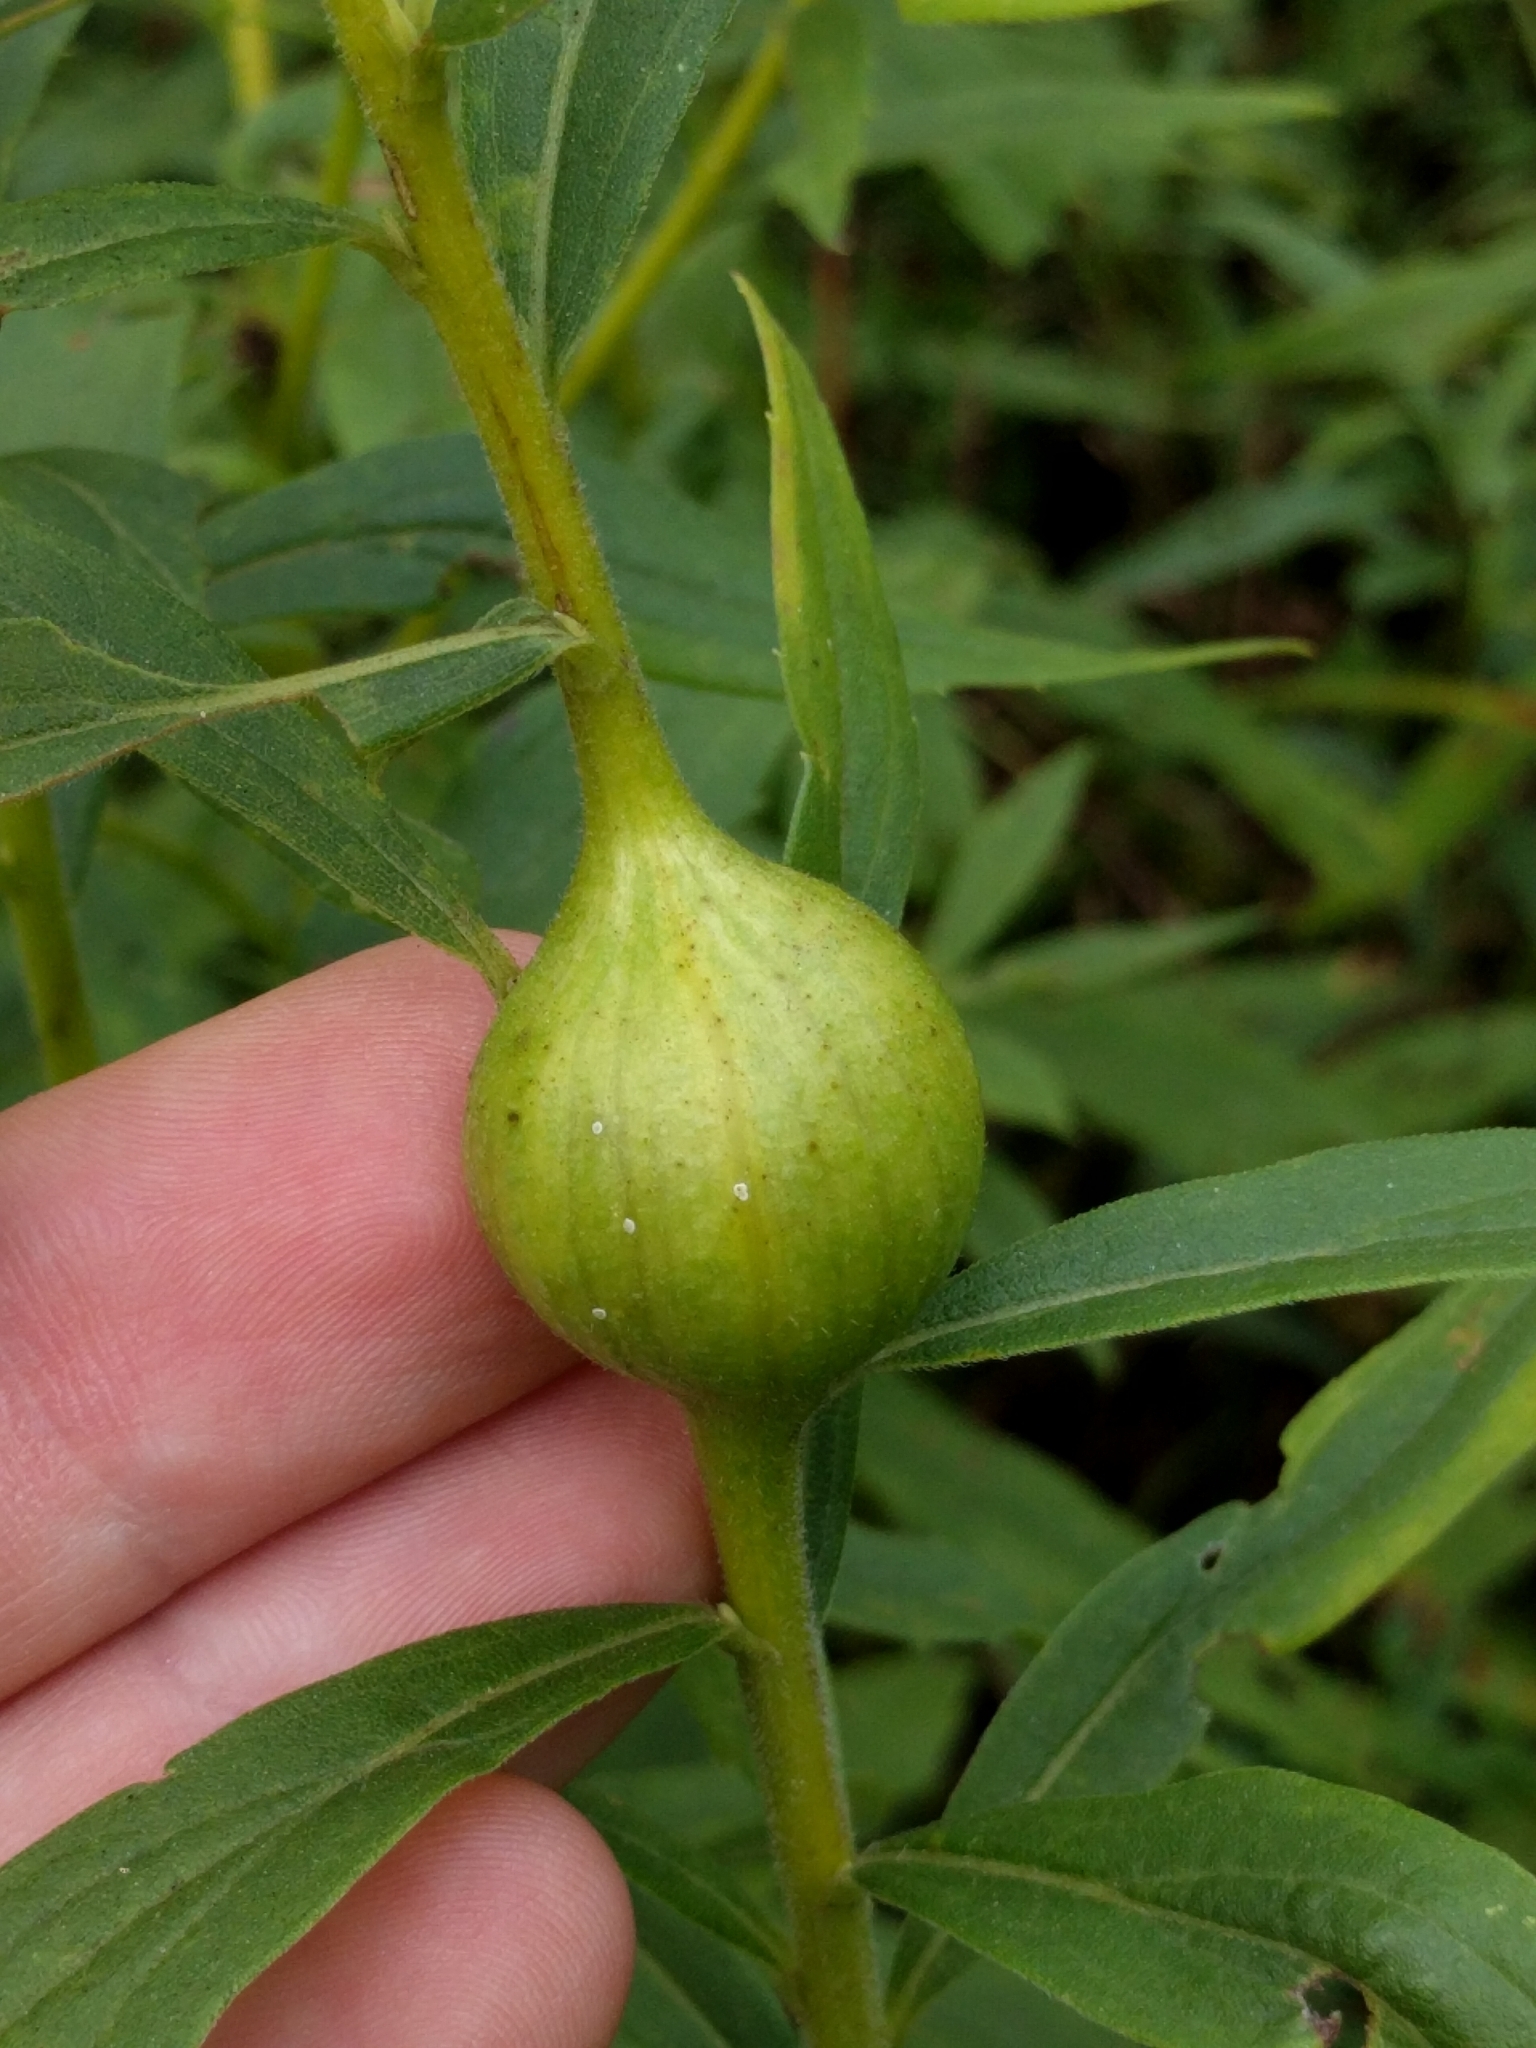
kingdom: Animalia
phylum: Arthropoda
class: Insecta
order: Diptera
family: Tephritidae
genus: Eurosta
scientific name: Eurosta solidaginis
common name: Goldenrod gall fly
